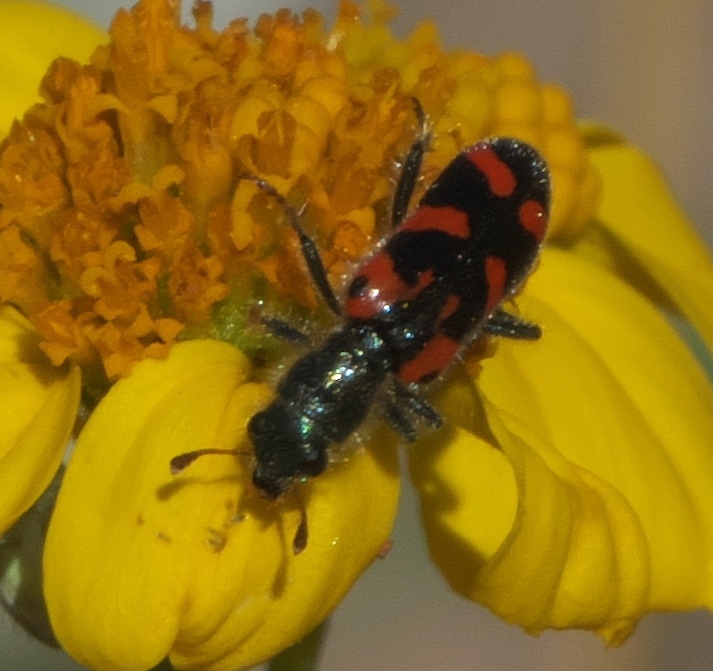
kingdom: Animalia
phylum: Arthropoda
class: Insecta
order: Coleoptera
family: Cleridae
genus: Trichodes
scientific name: Trichodes ornatus
